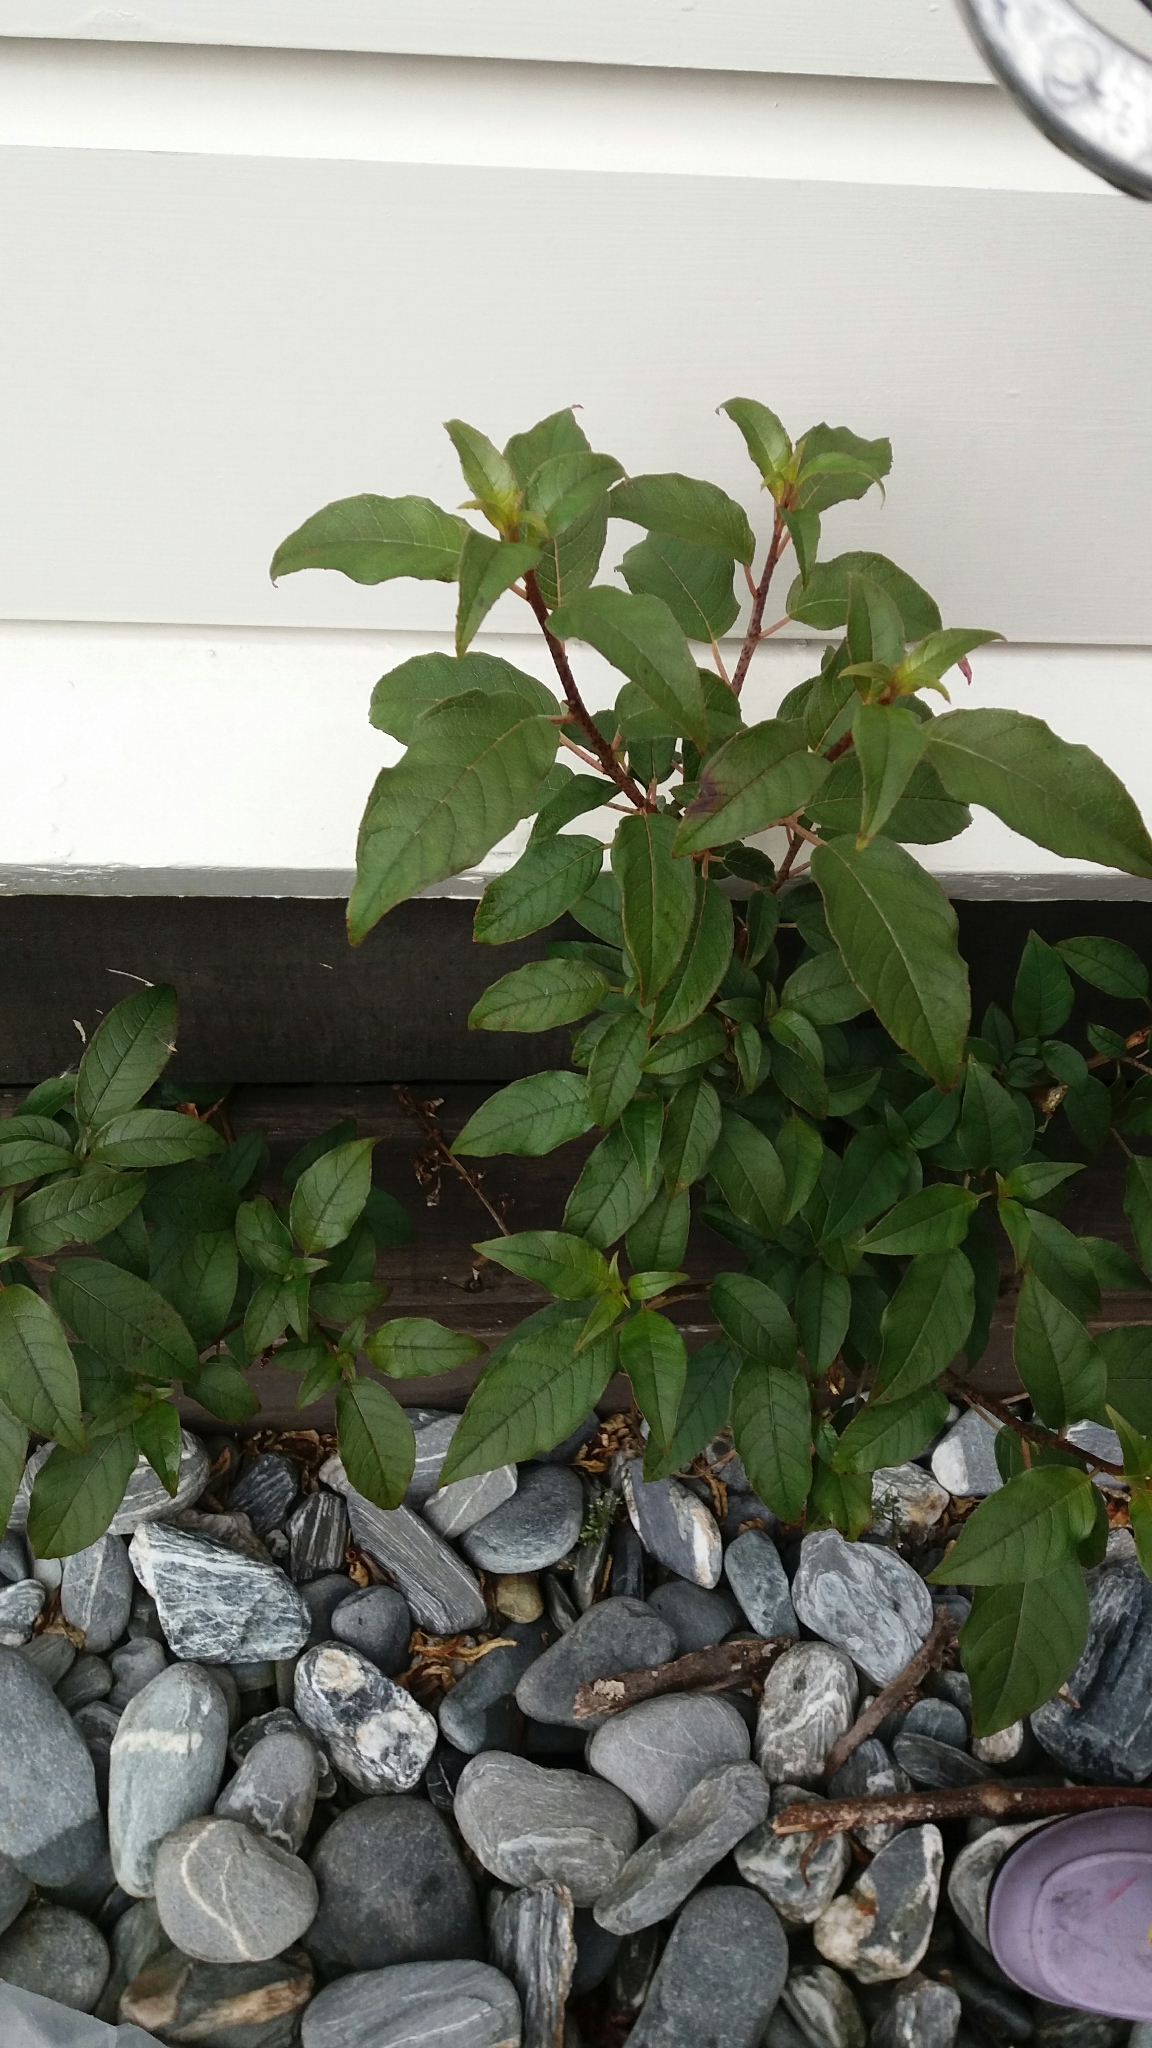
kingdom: Plantae
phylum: Tracheophyta
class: Magnoliopsida
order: Myrtales
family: Onagraceae
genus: Fuchsia
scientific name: Fuchsia excorticata
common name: Tree fuchsia
